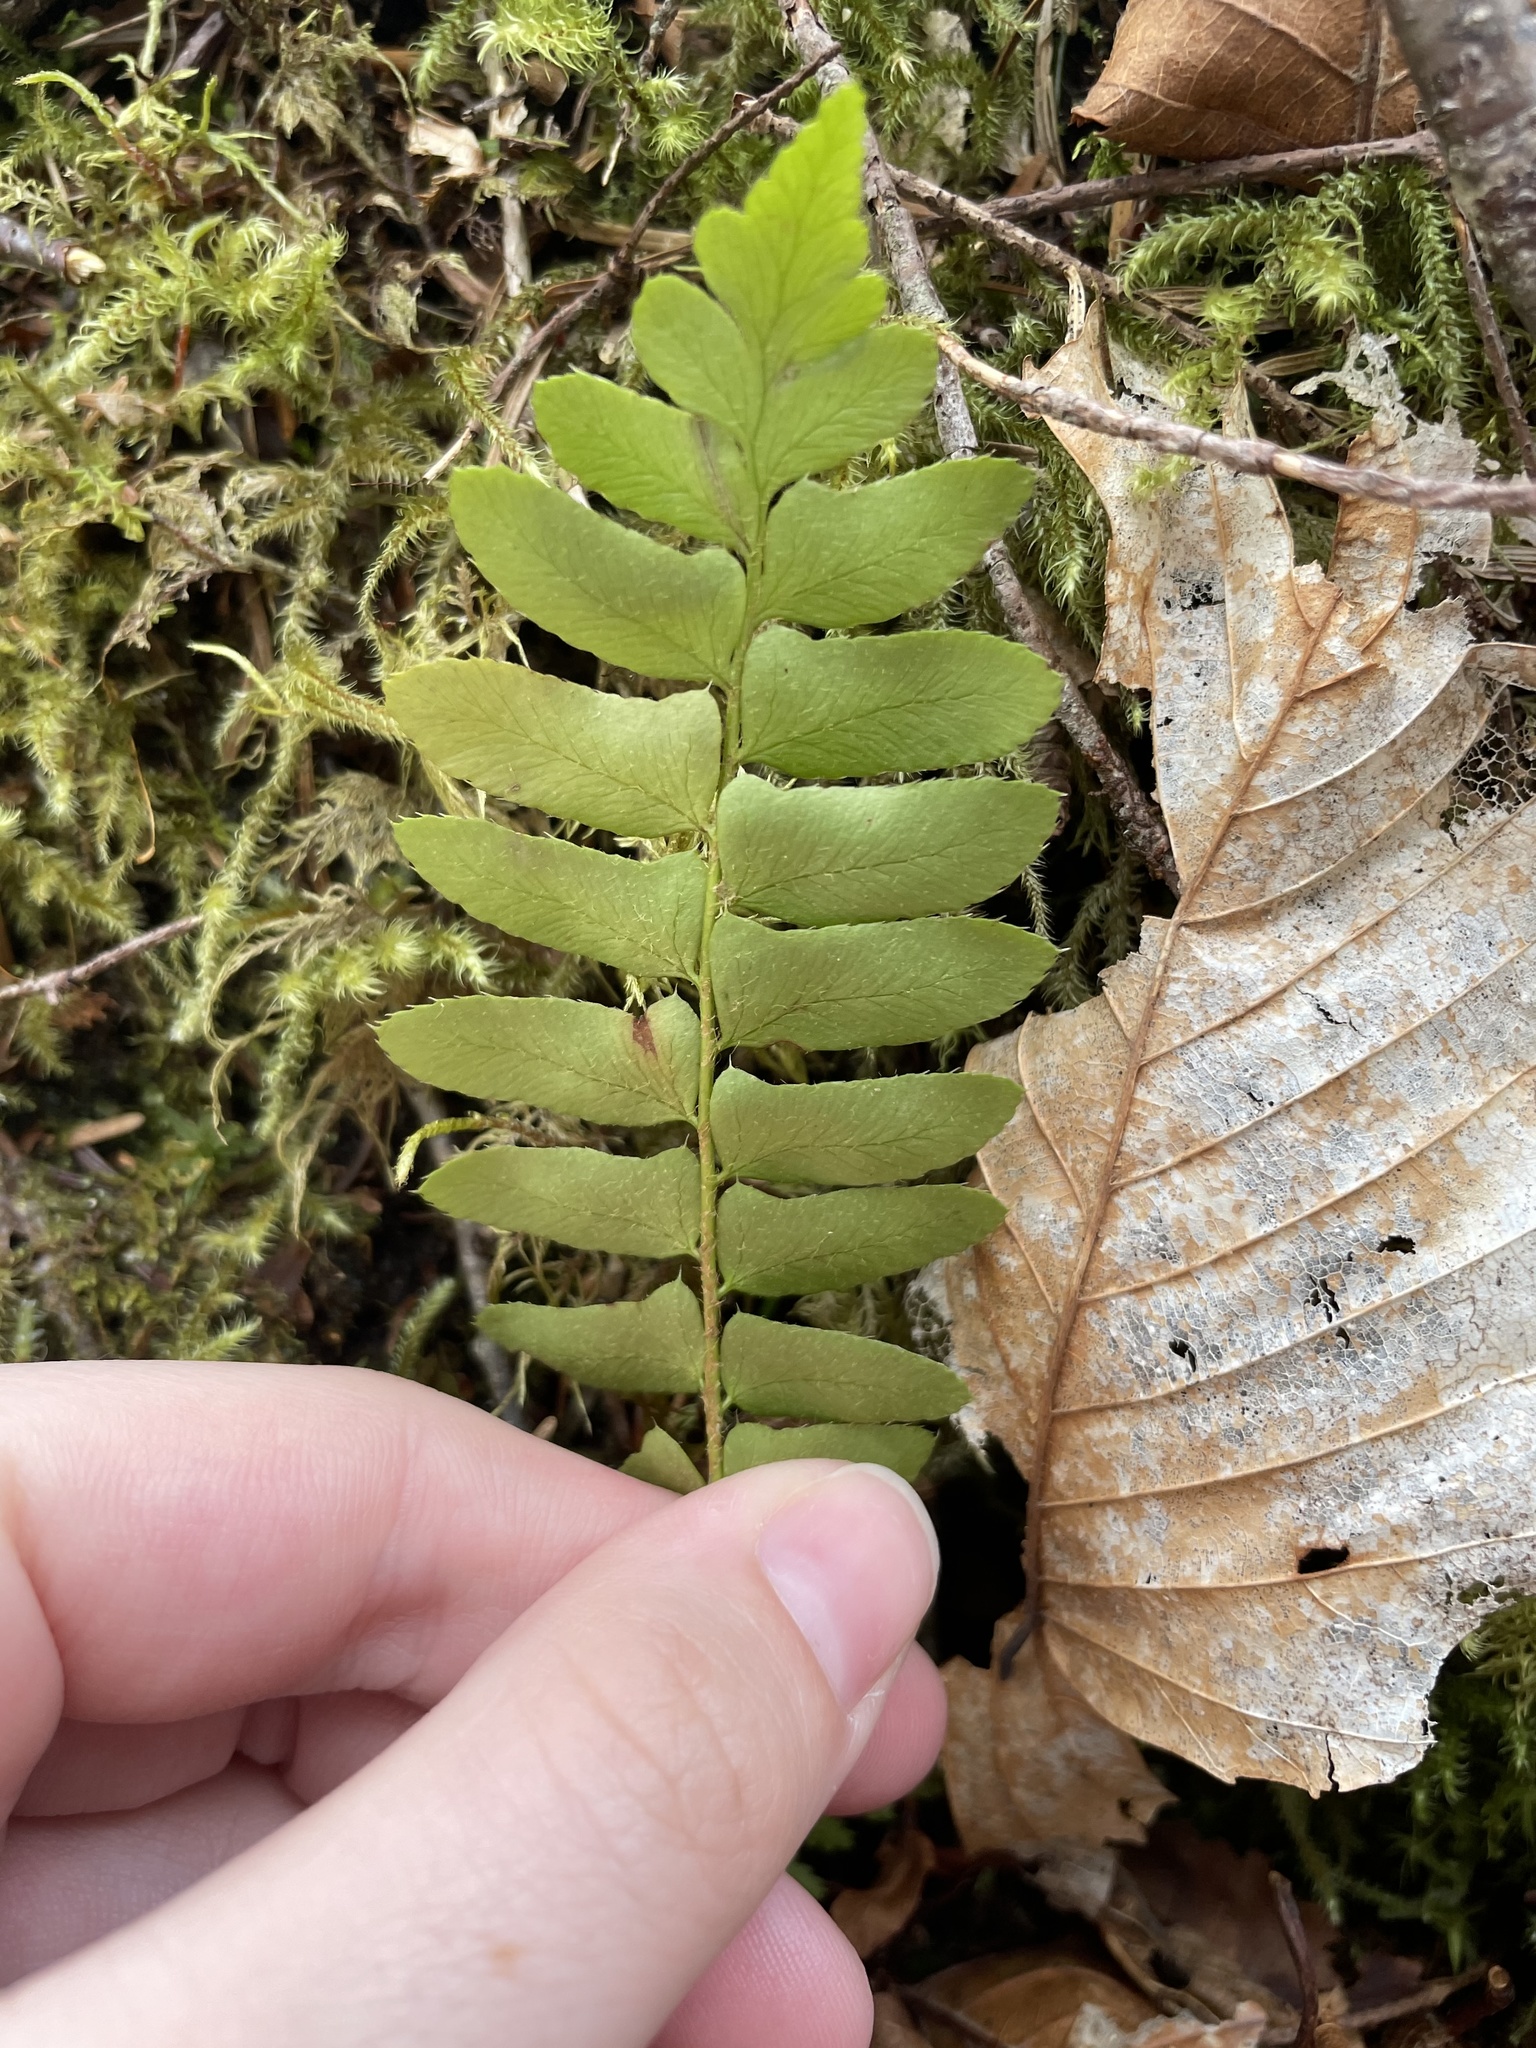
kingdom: Plantae
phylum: Tracheophyta
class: Polypodiopsida
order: Polypodiales
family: Dryopteridaceae
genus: Polystichum
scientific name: Polystichum acrostichoides
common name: Christmas fern
